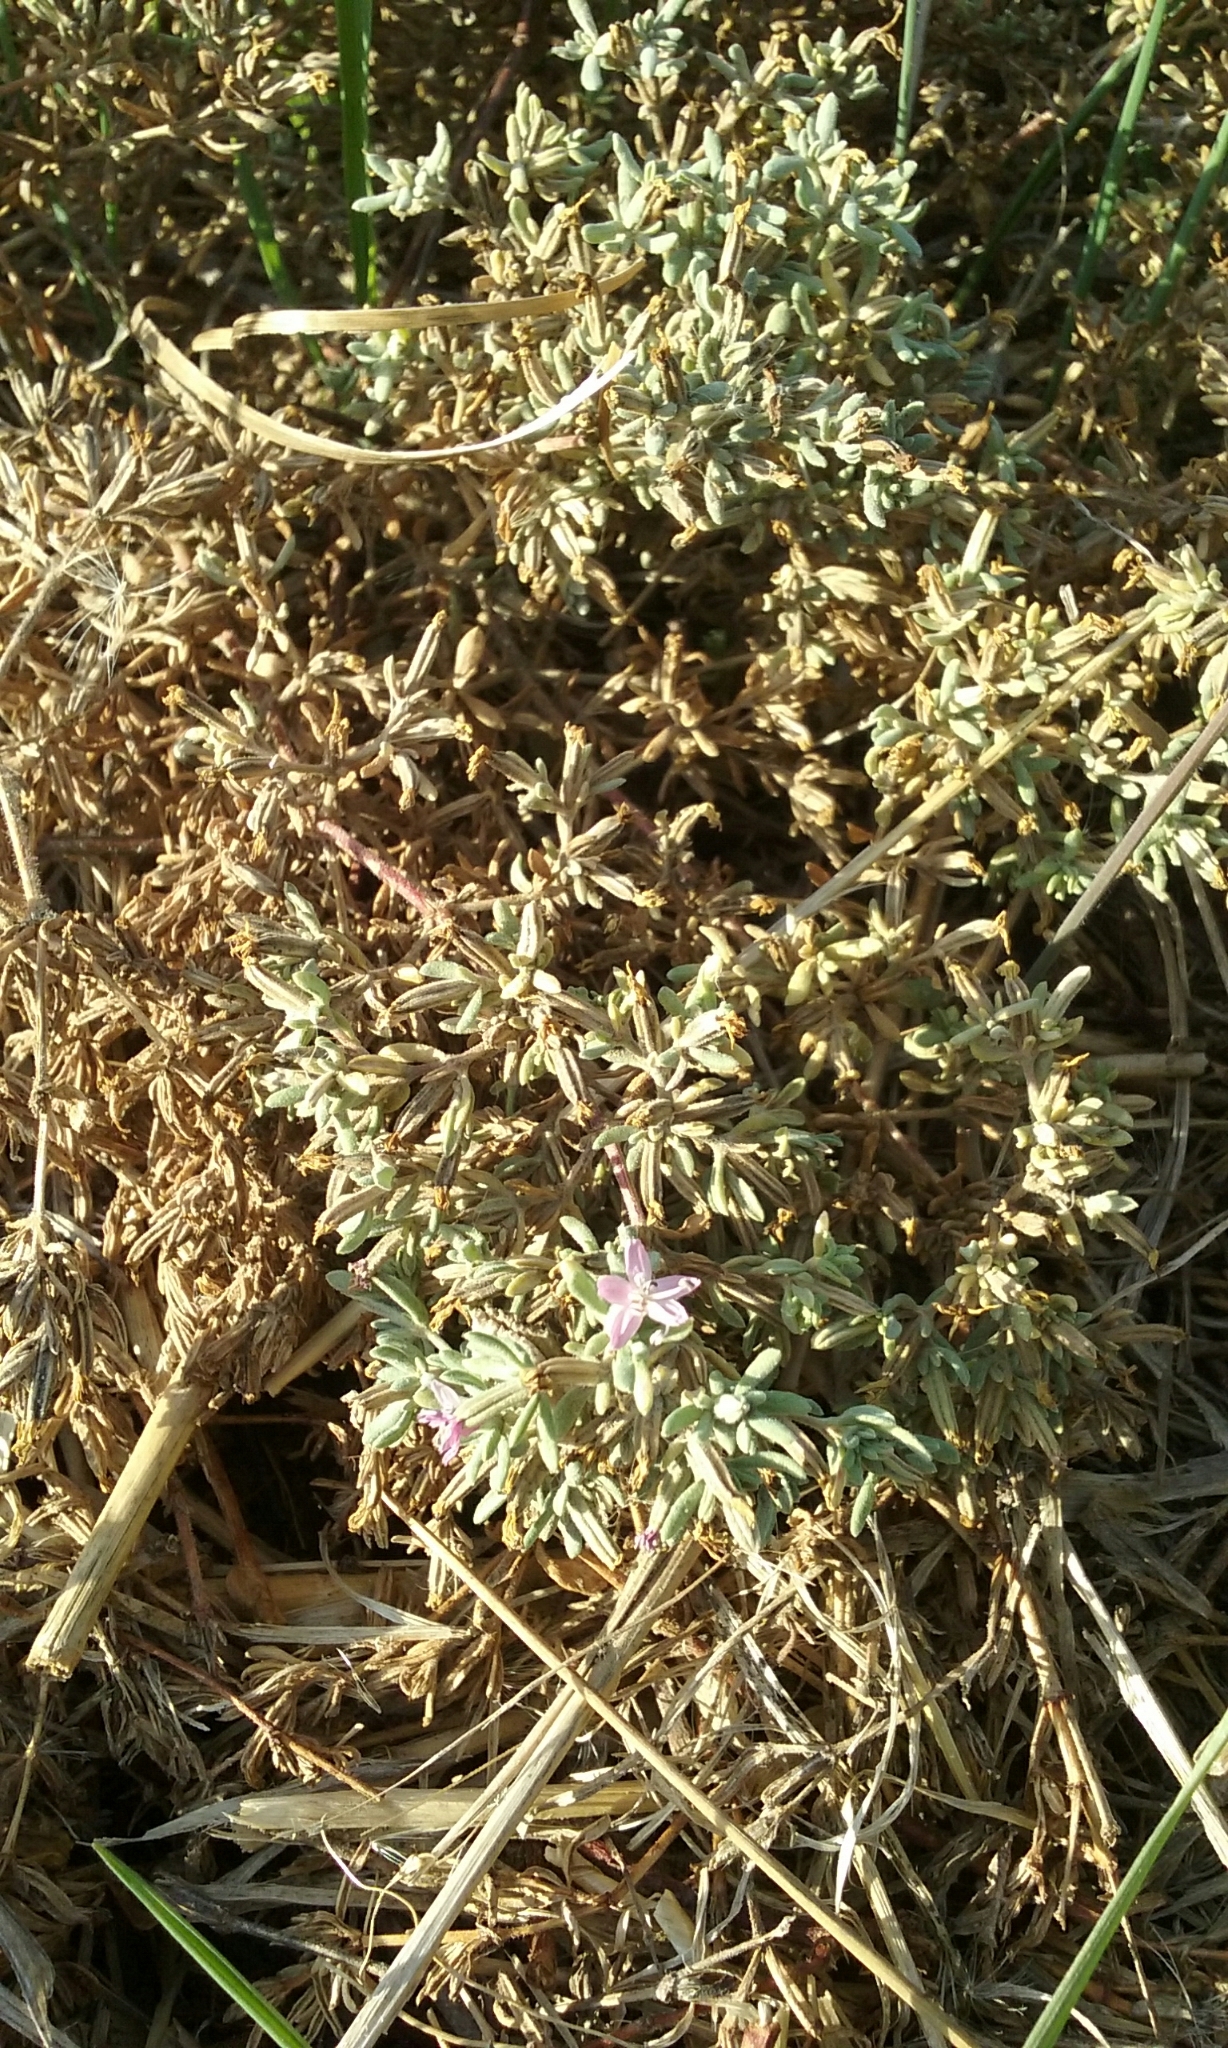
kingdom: Plantae
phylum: Tracheophyta
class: Magnoliopsida
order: Caryophyllales
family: Frankeniaceae
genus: Frankenia
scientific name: Frankenia salina
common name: Alkali seaheath
